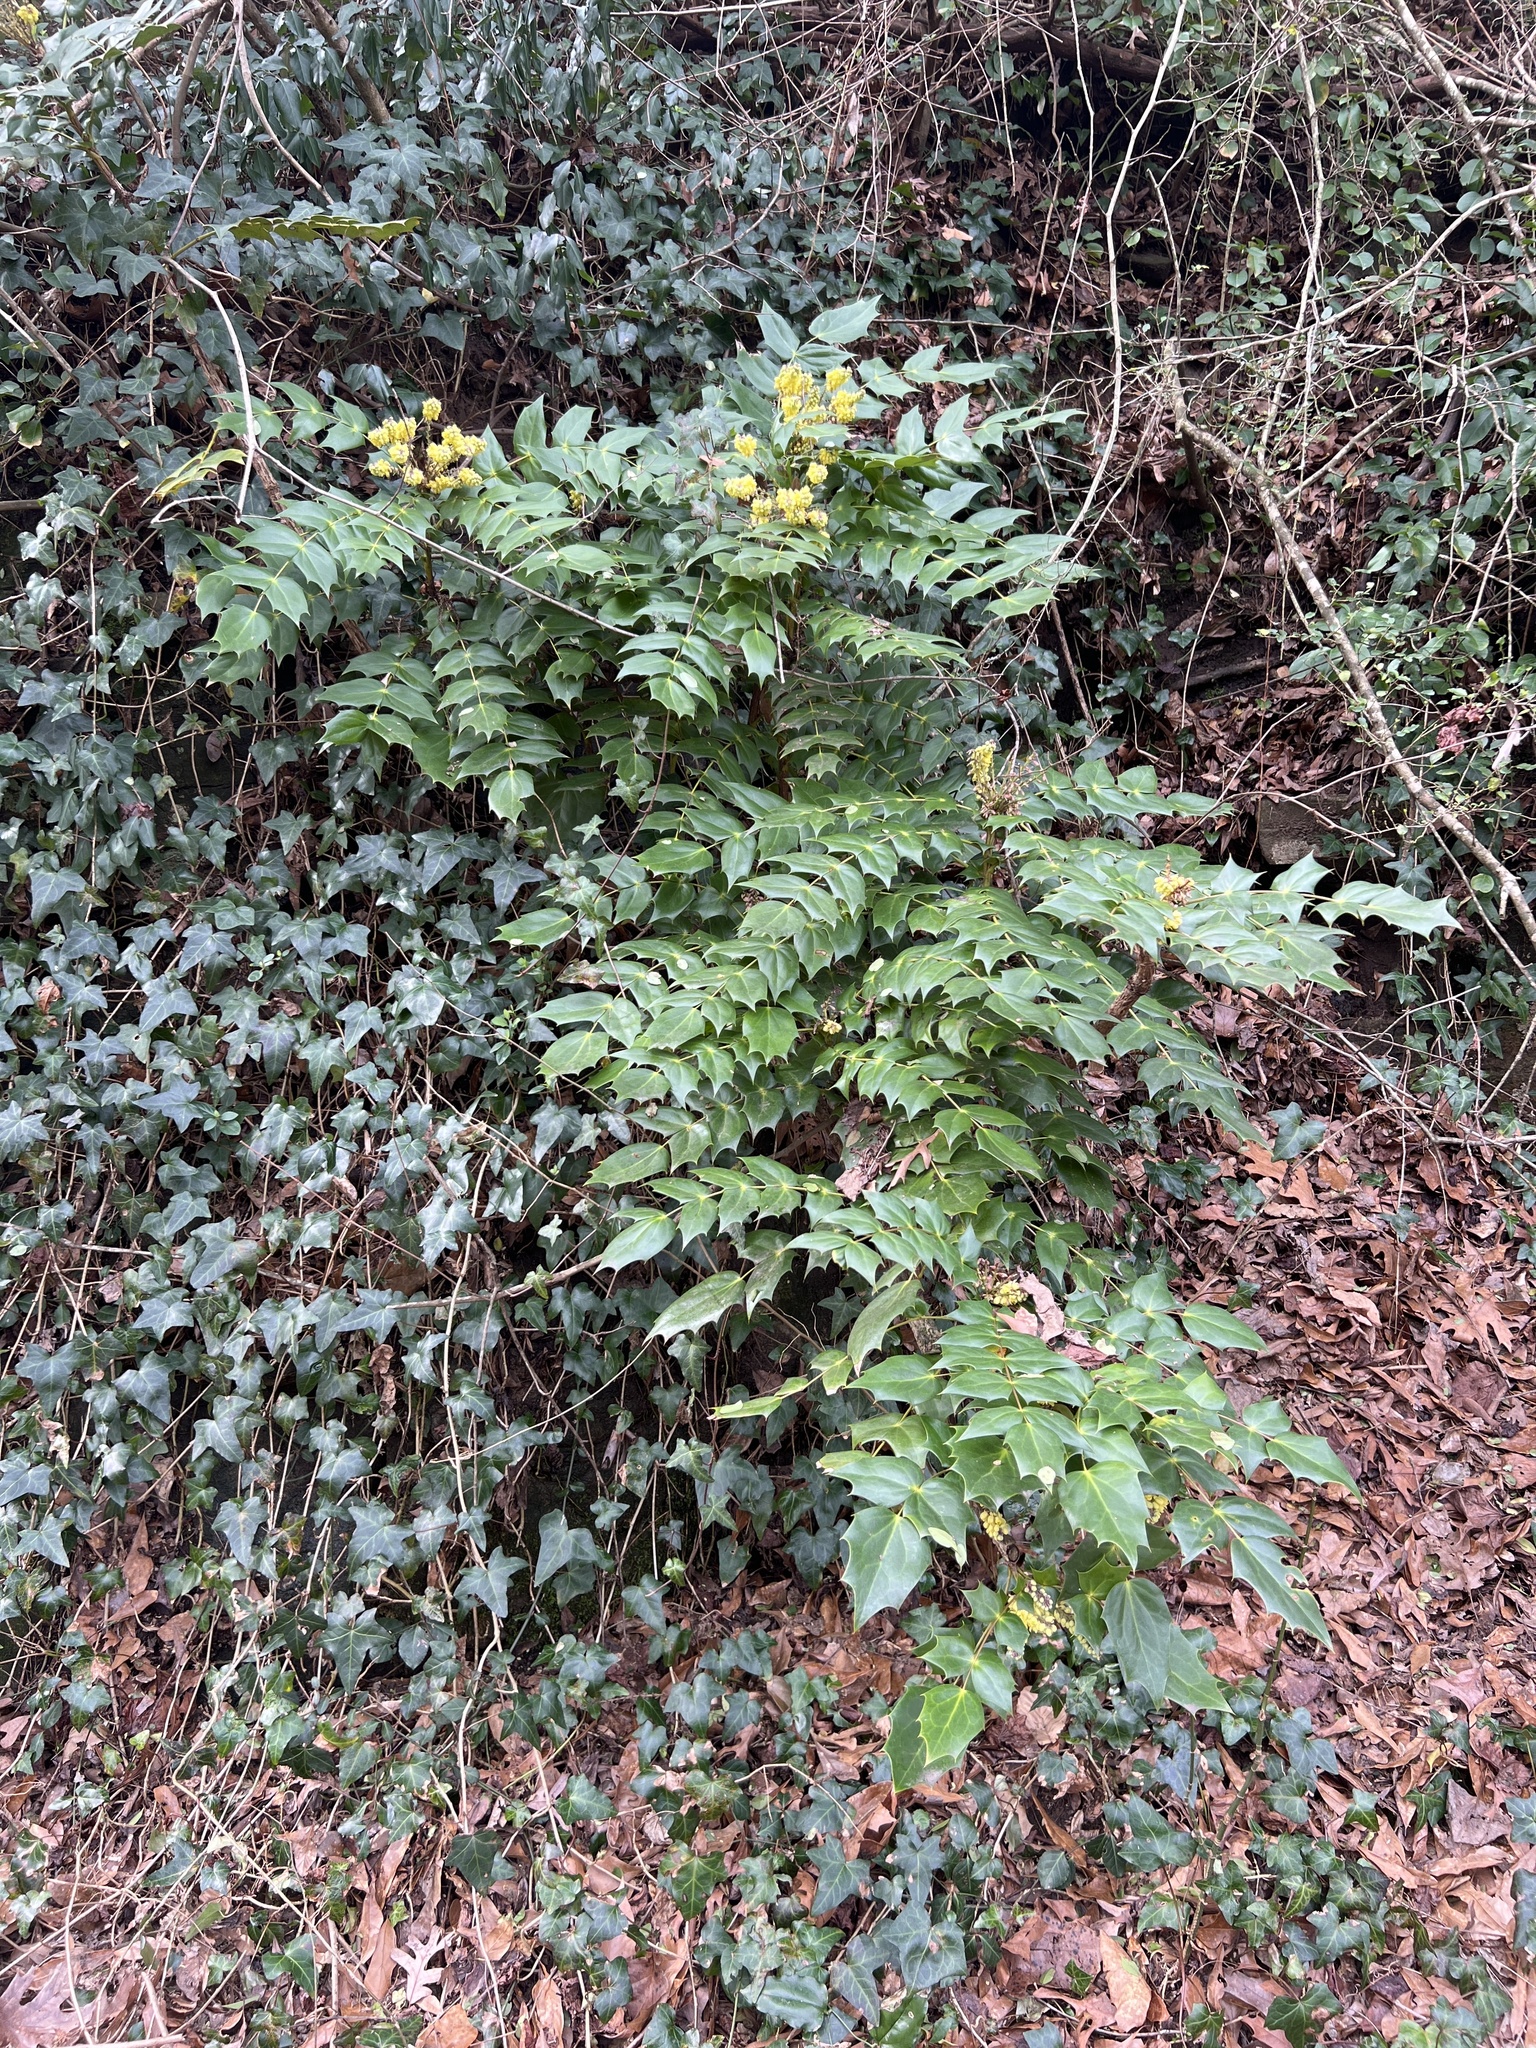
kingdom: Plantae
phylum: Tracheophyta
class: Magnoliopsida
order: Ranunculales
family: Berberidaceae
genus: Mahonia
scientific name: Mahonia bealei
